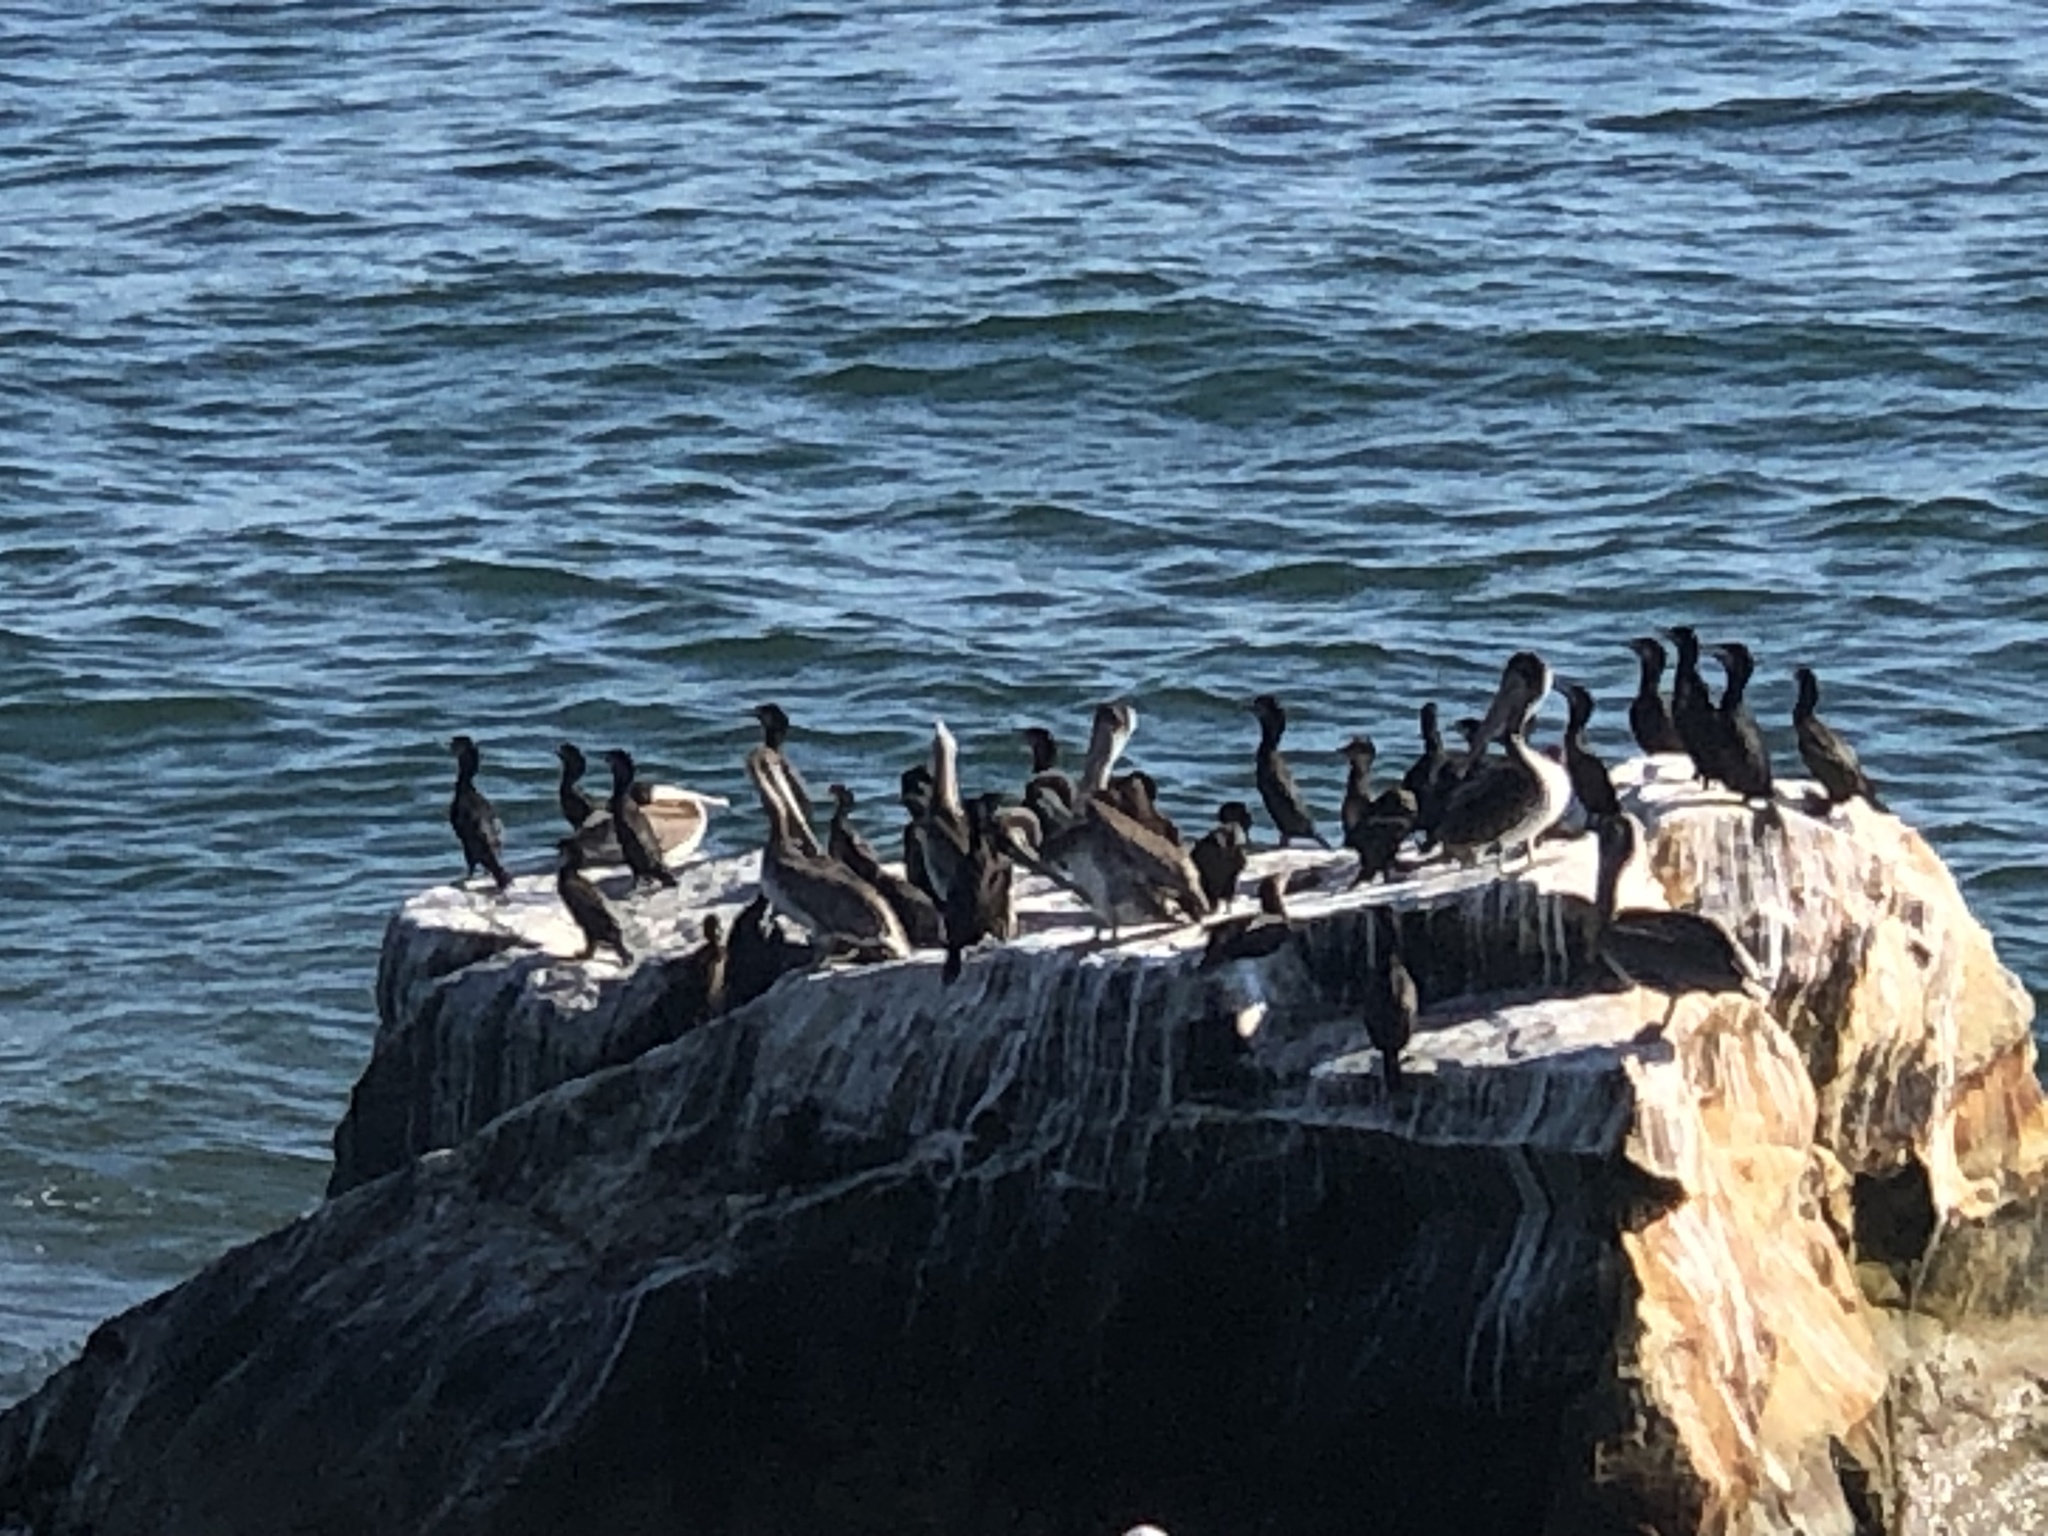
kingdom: Animalia
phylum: Chordata
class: Aves
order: Pelecaniformes
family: Pelecanidae
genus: Pelecanus
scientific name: Pelecanus occidentalis
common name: Brown pelican
